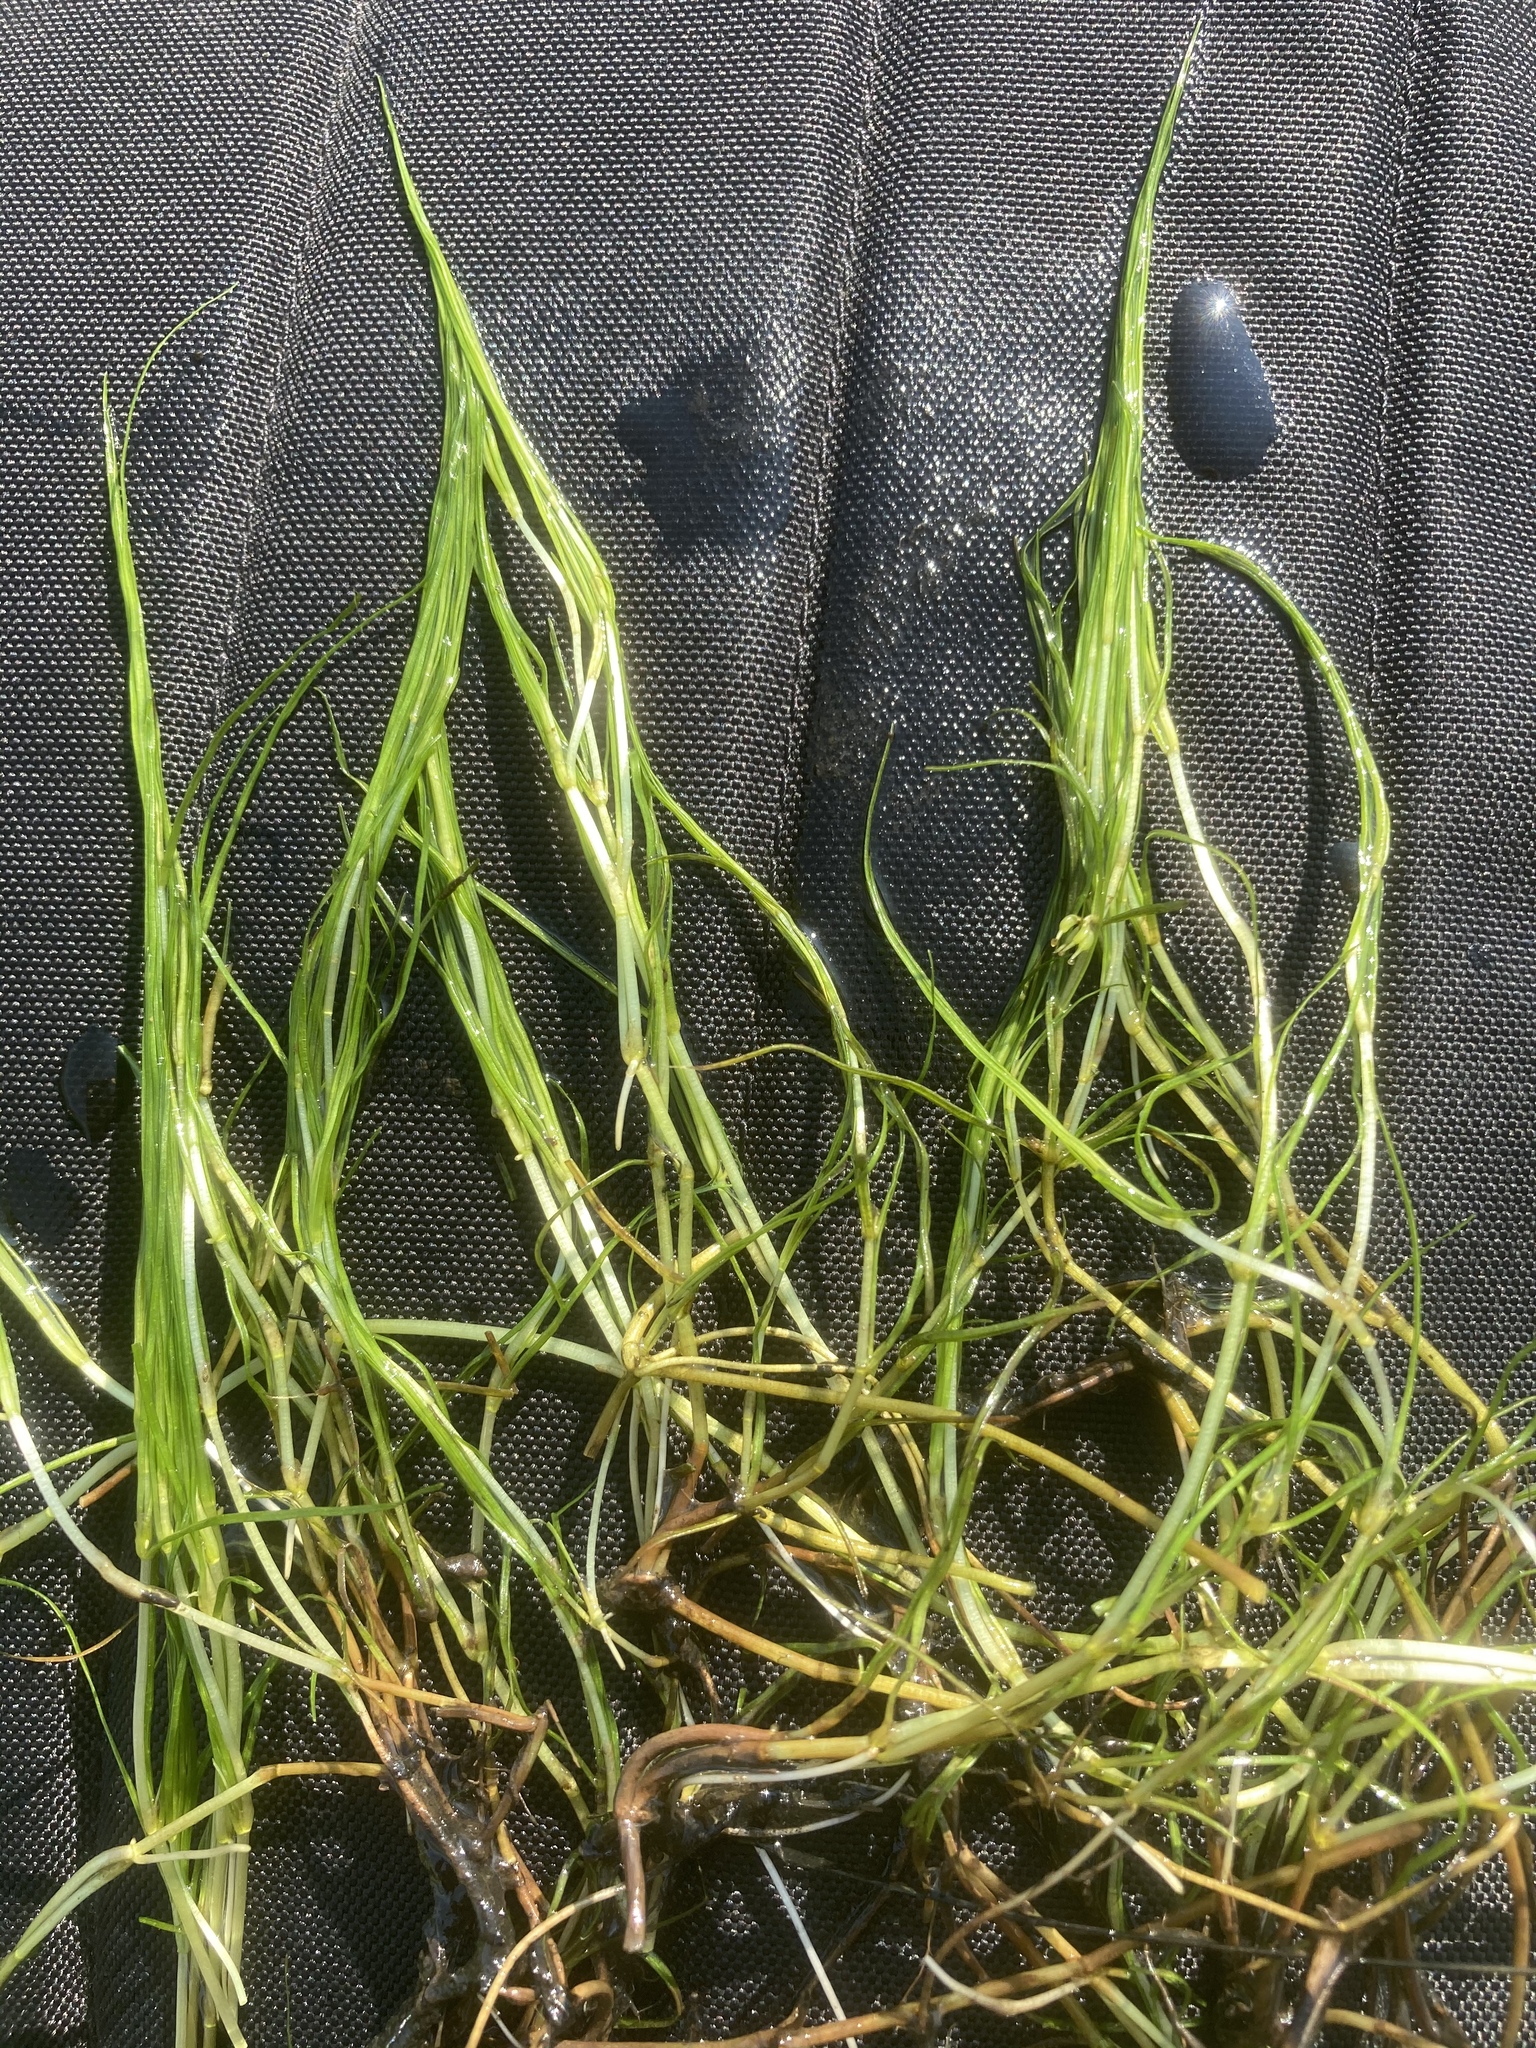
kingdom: Plantae
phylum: Tracheophyta
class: Liliopsida
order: Alismatales
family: Potamogetonaceae
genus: Zannichellia
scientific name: Zannichellia palustris
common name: Horned pondweed
